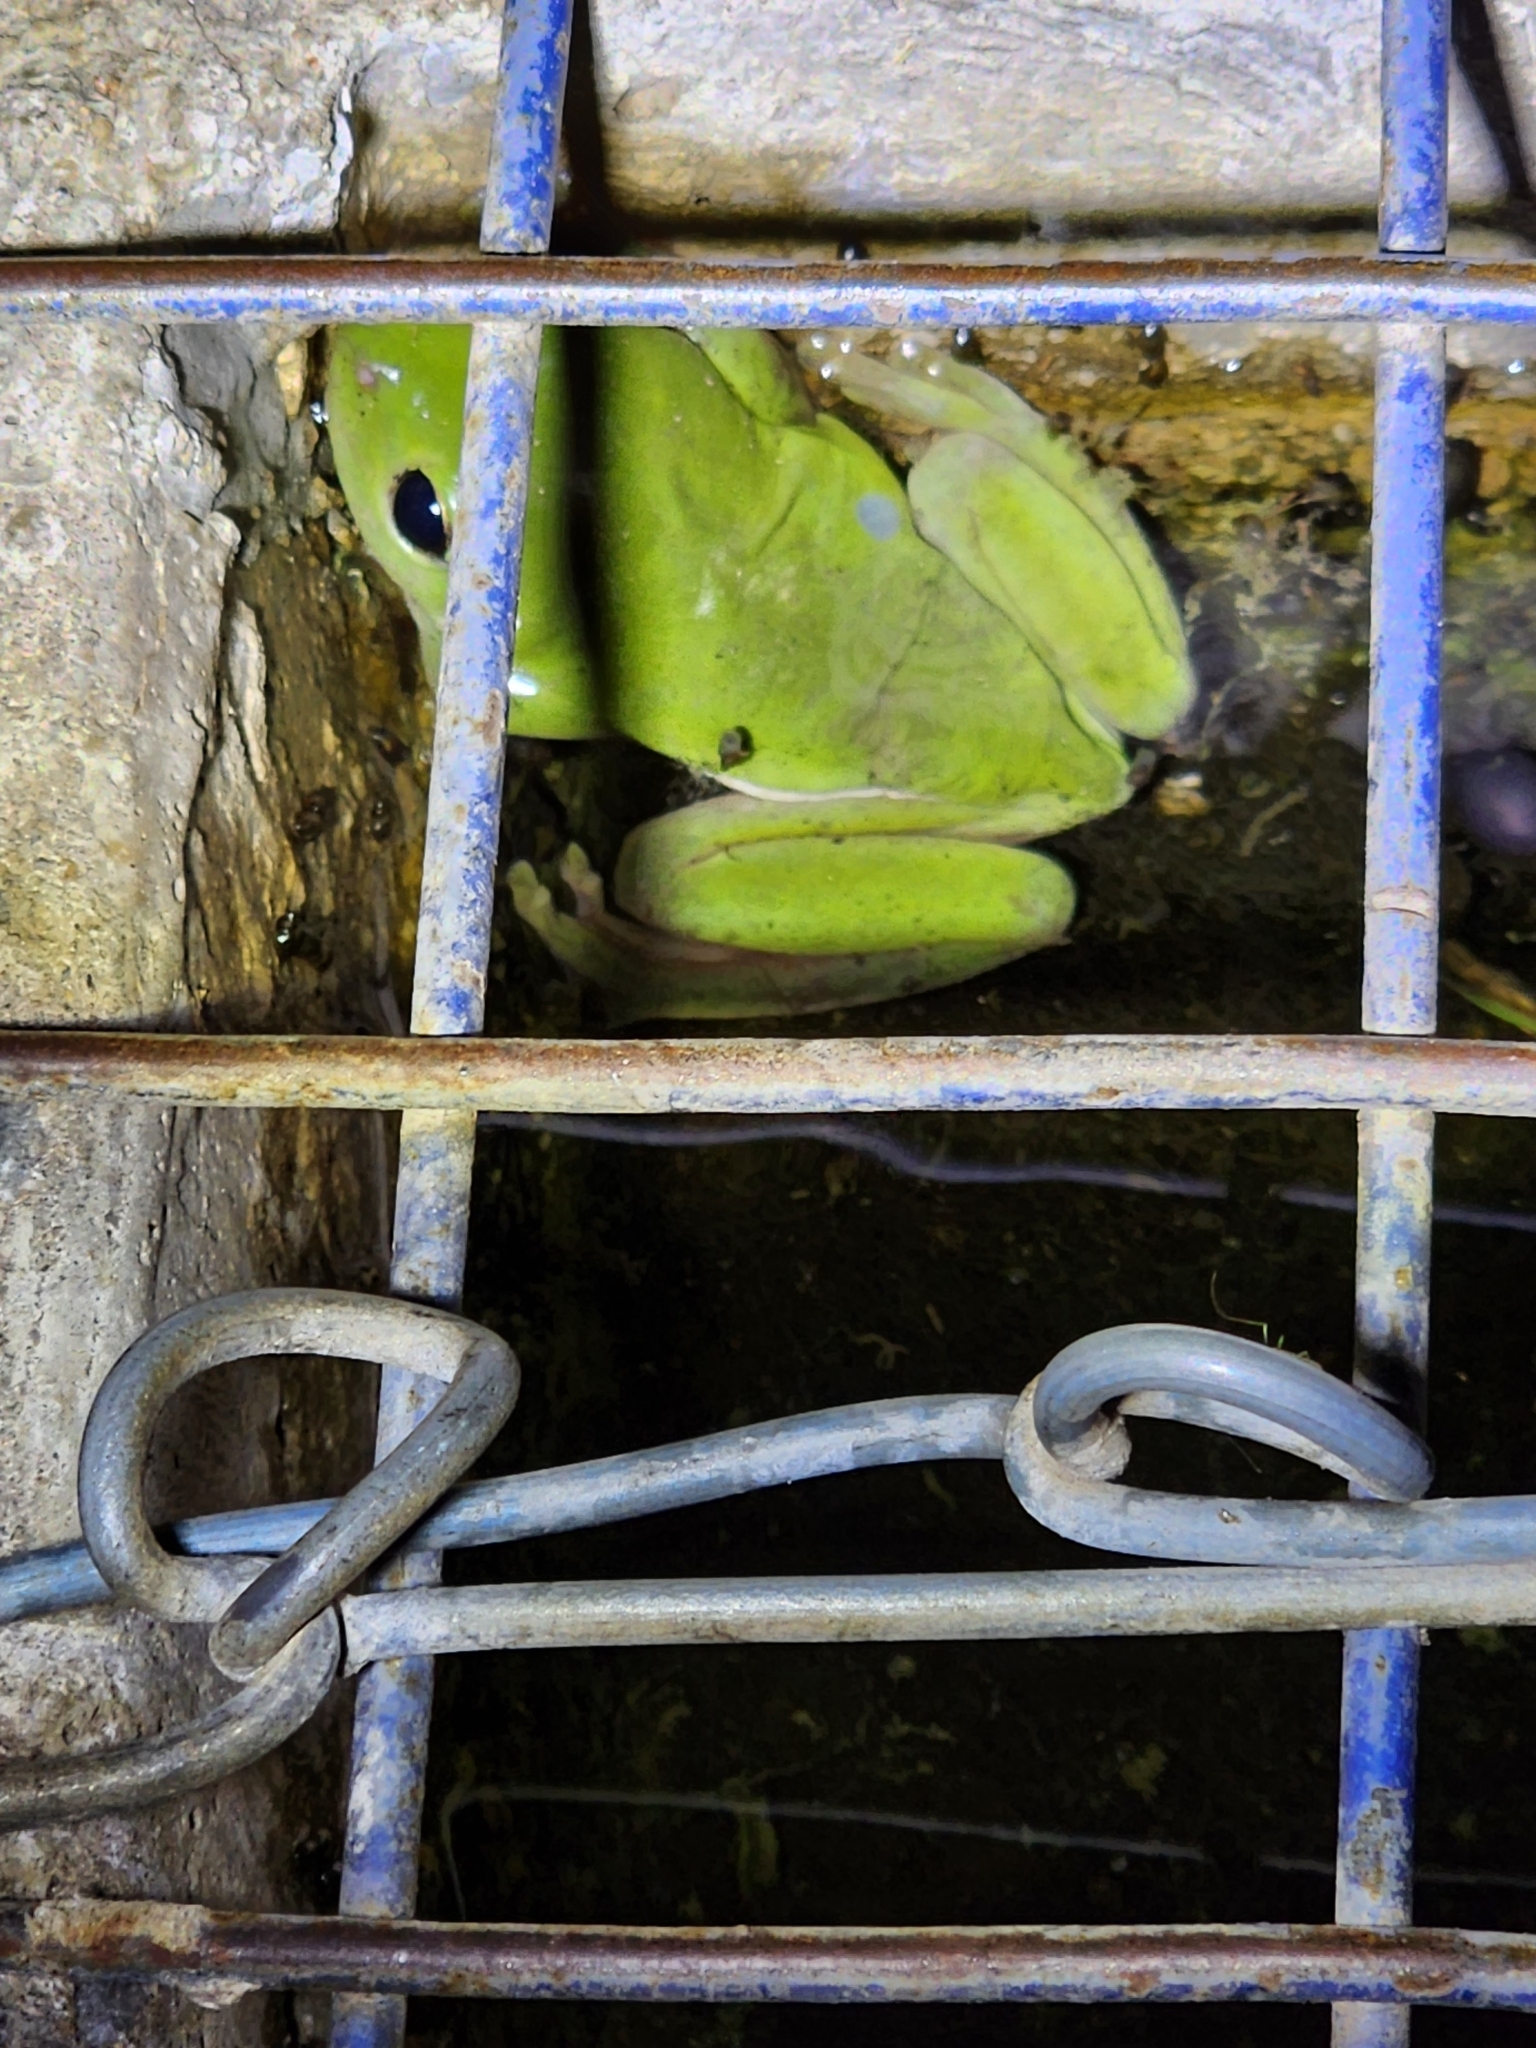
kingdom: Animalia
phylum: Chordata
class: Amphibia
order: Anura
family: Pelodryadidae
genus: Ranoidea
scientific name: Ranoidea caerulea
